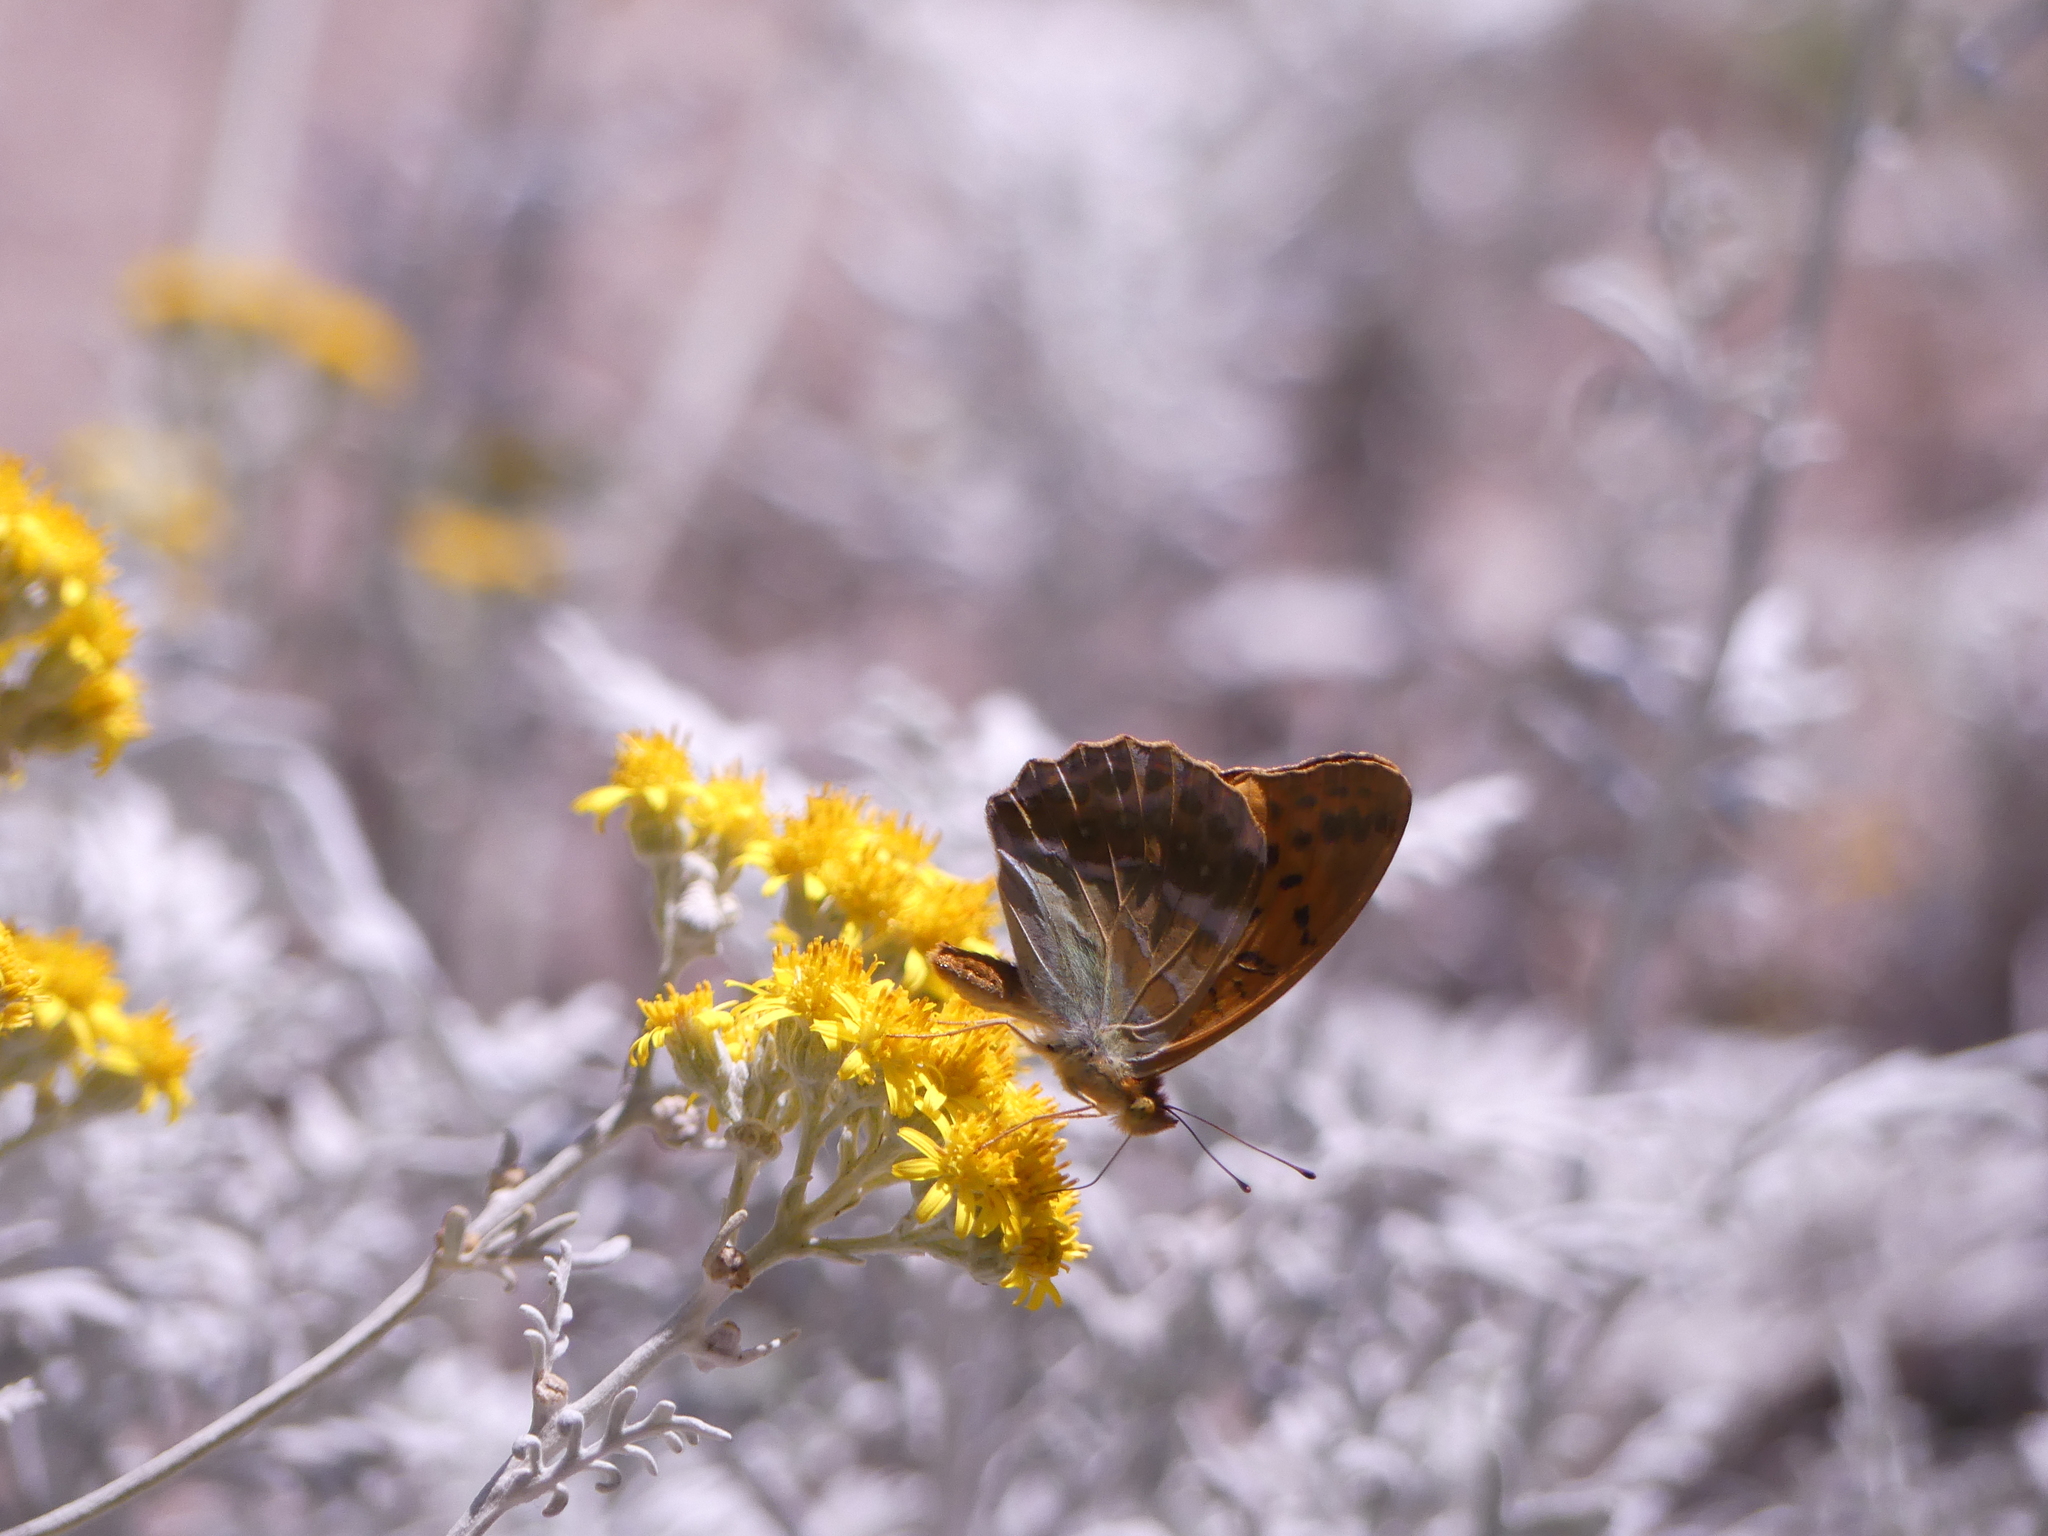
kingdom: Animalia
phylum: Arthropoda
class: Insecta
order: Lepidoptera
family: Nymphalidae
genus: Argynnis
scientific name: Argynnis paphia
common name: Silver-washed fritillary
